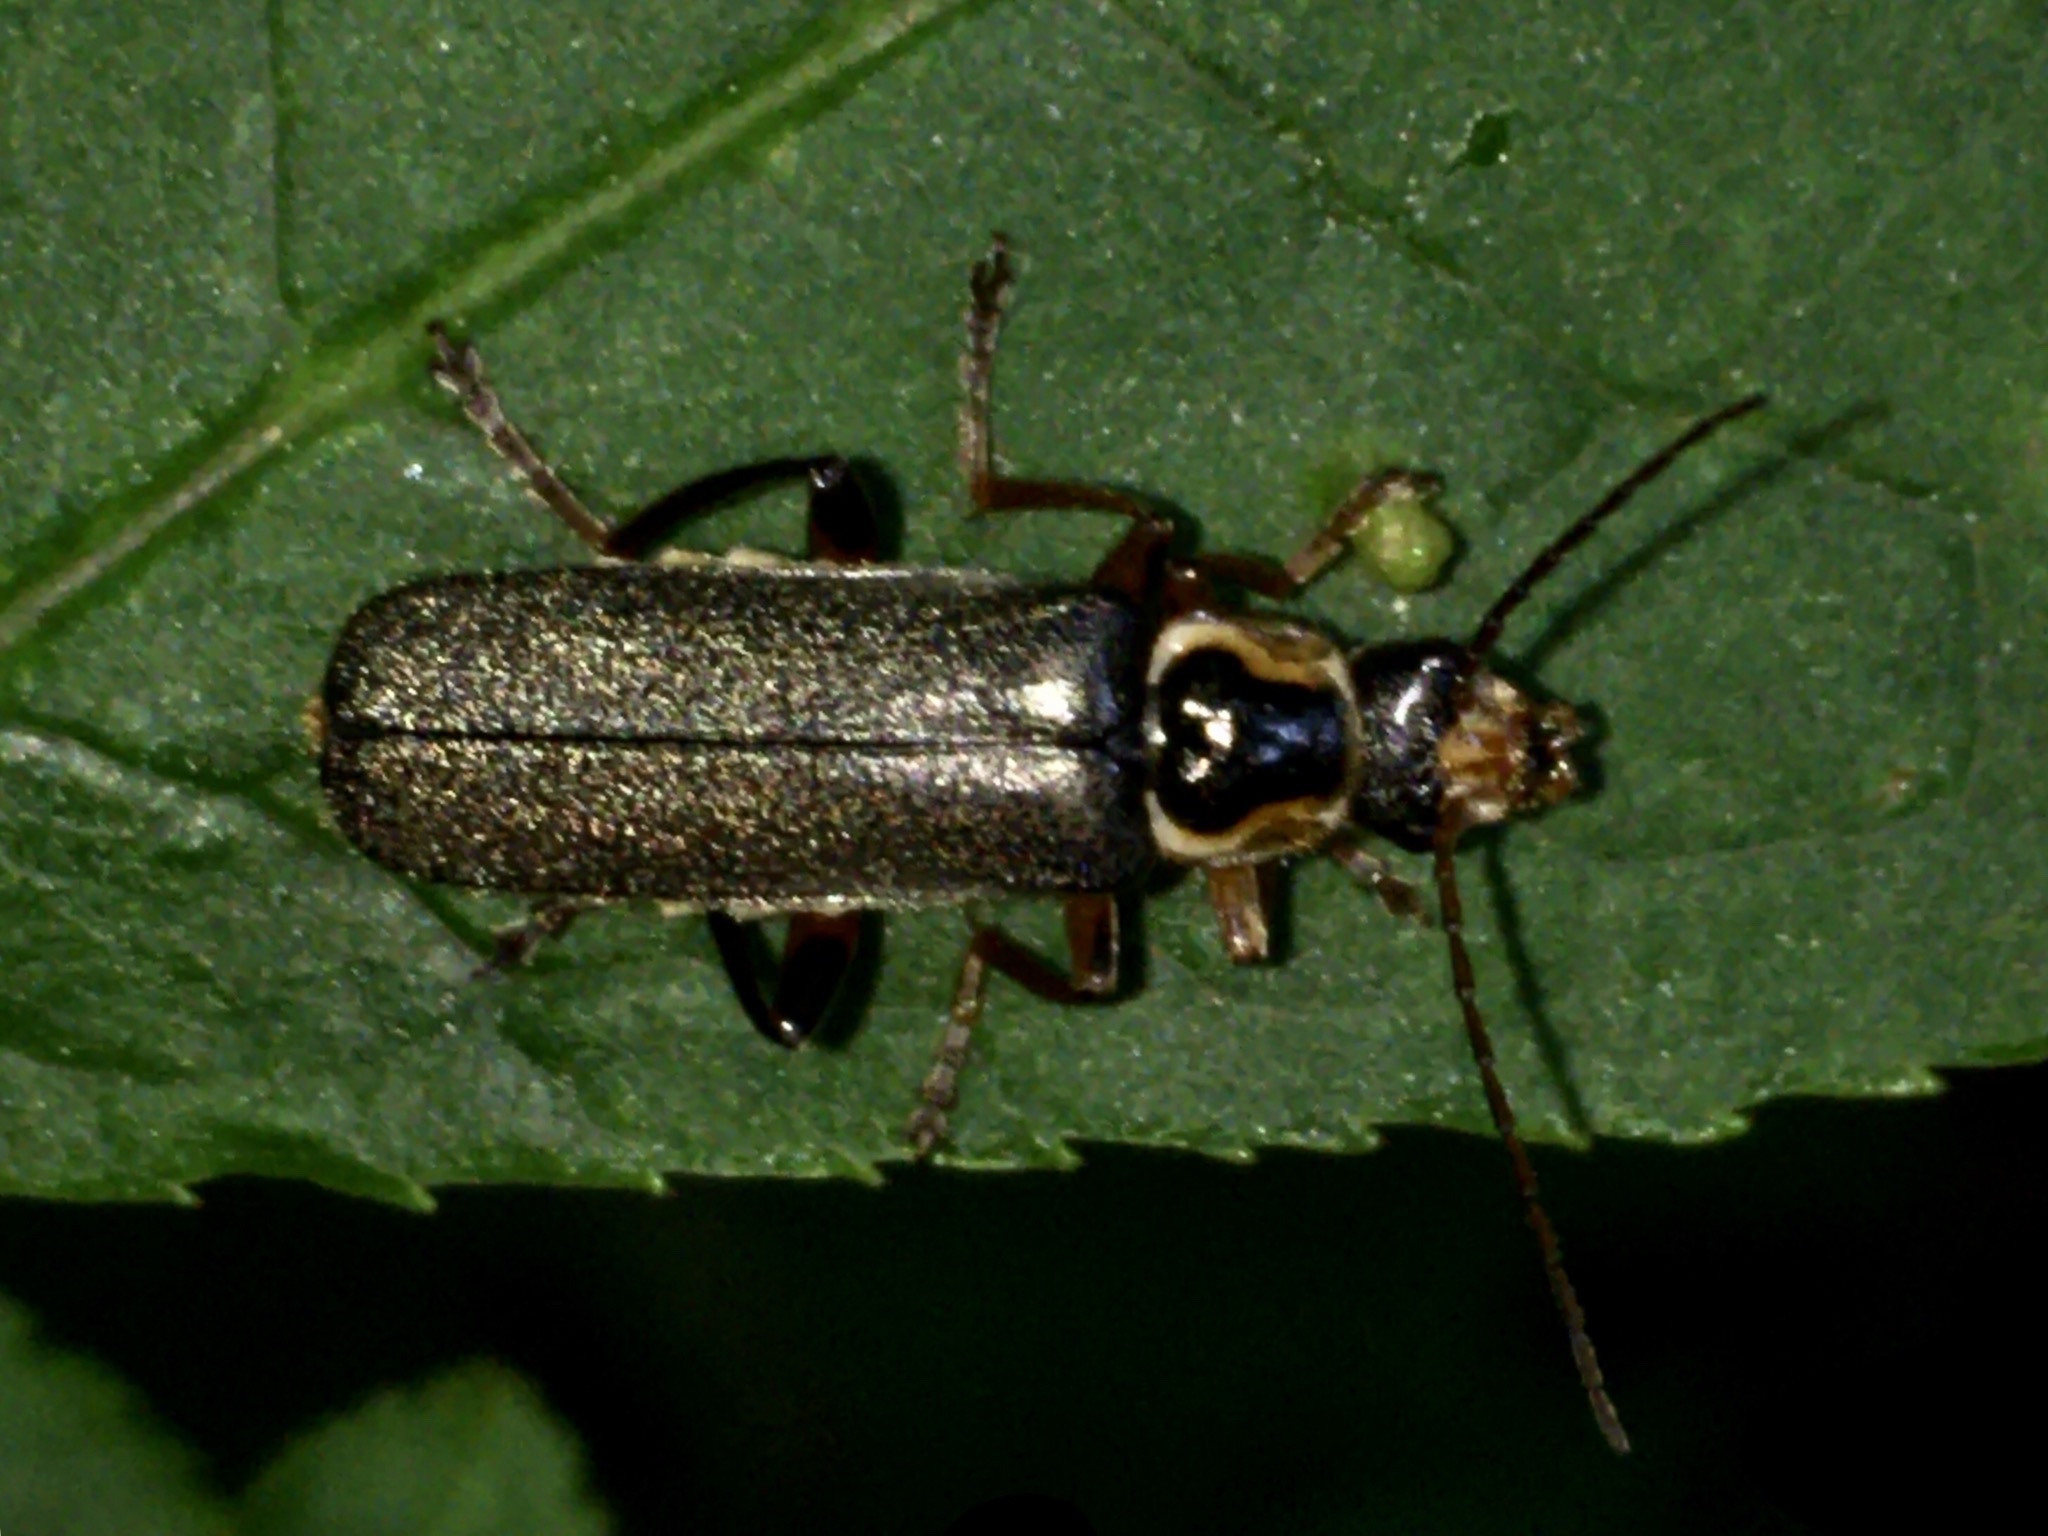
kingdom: Animalia
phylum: Arthropoda
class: Insecta
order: Coleoptera
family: Cantharidae
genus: Cantharis
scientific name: Cantharis nigricans
